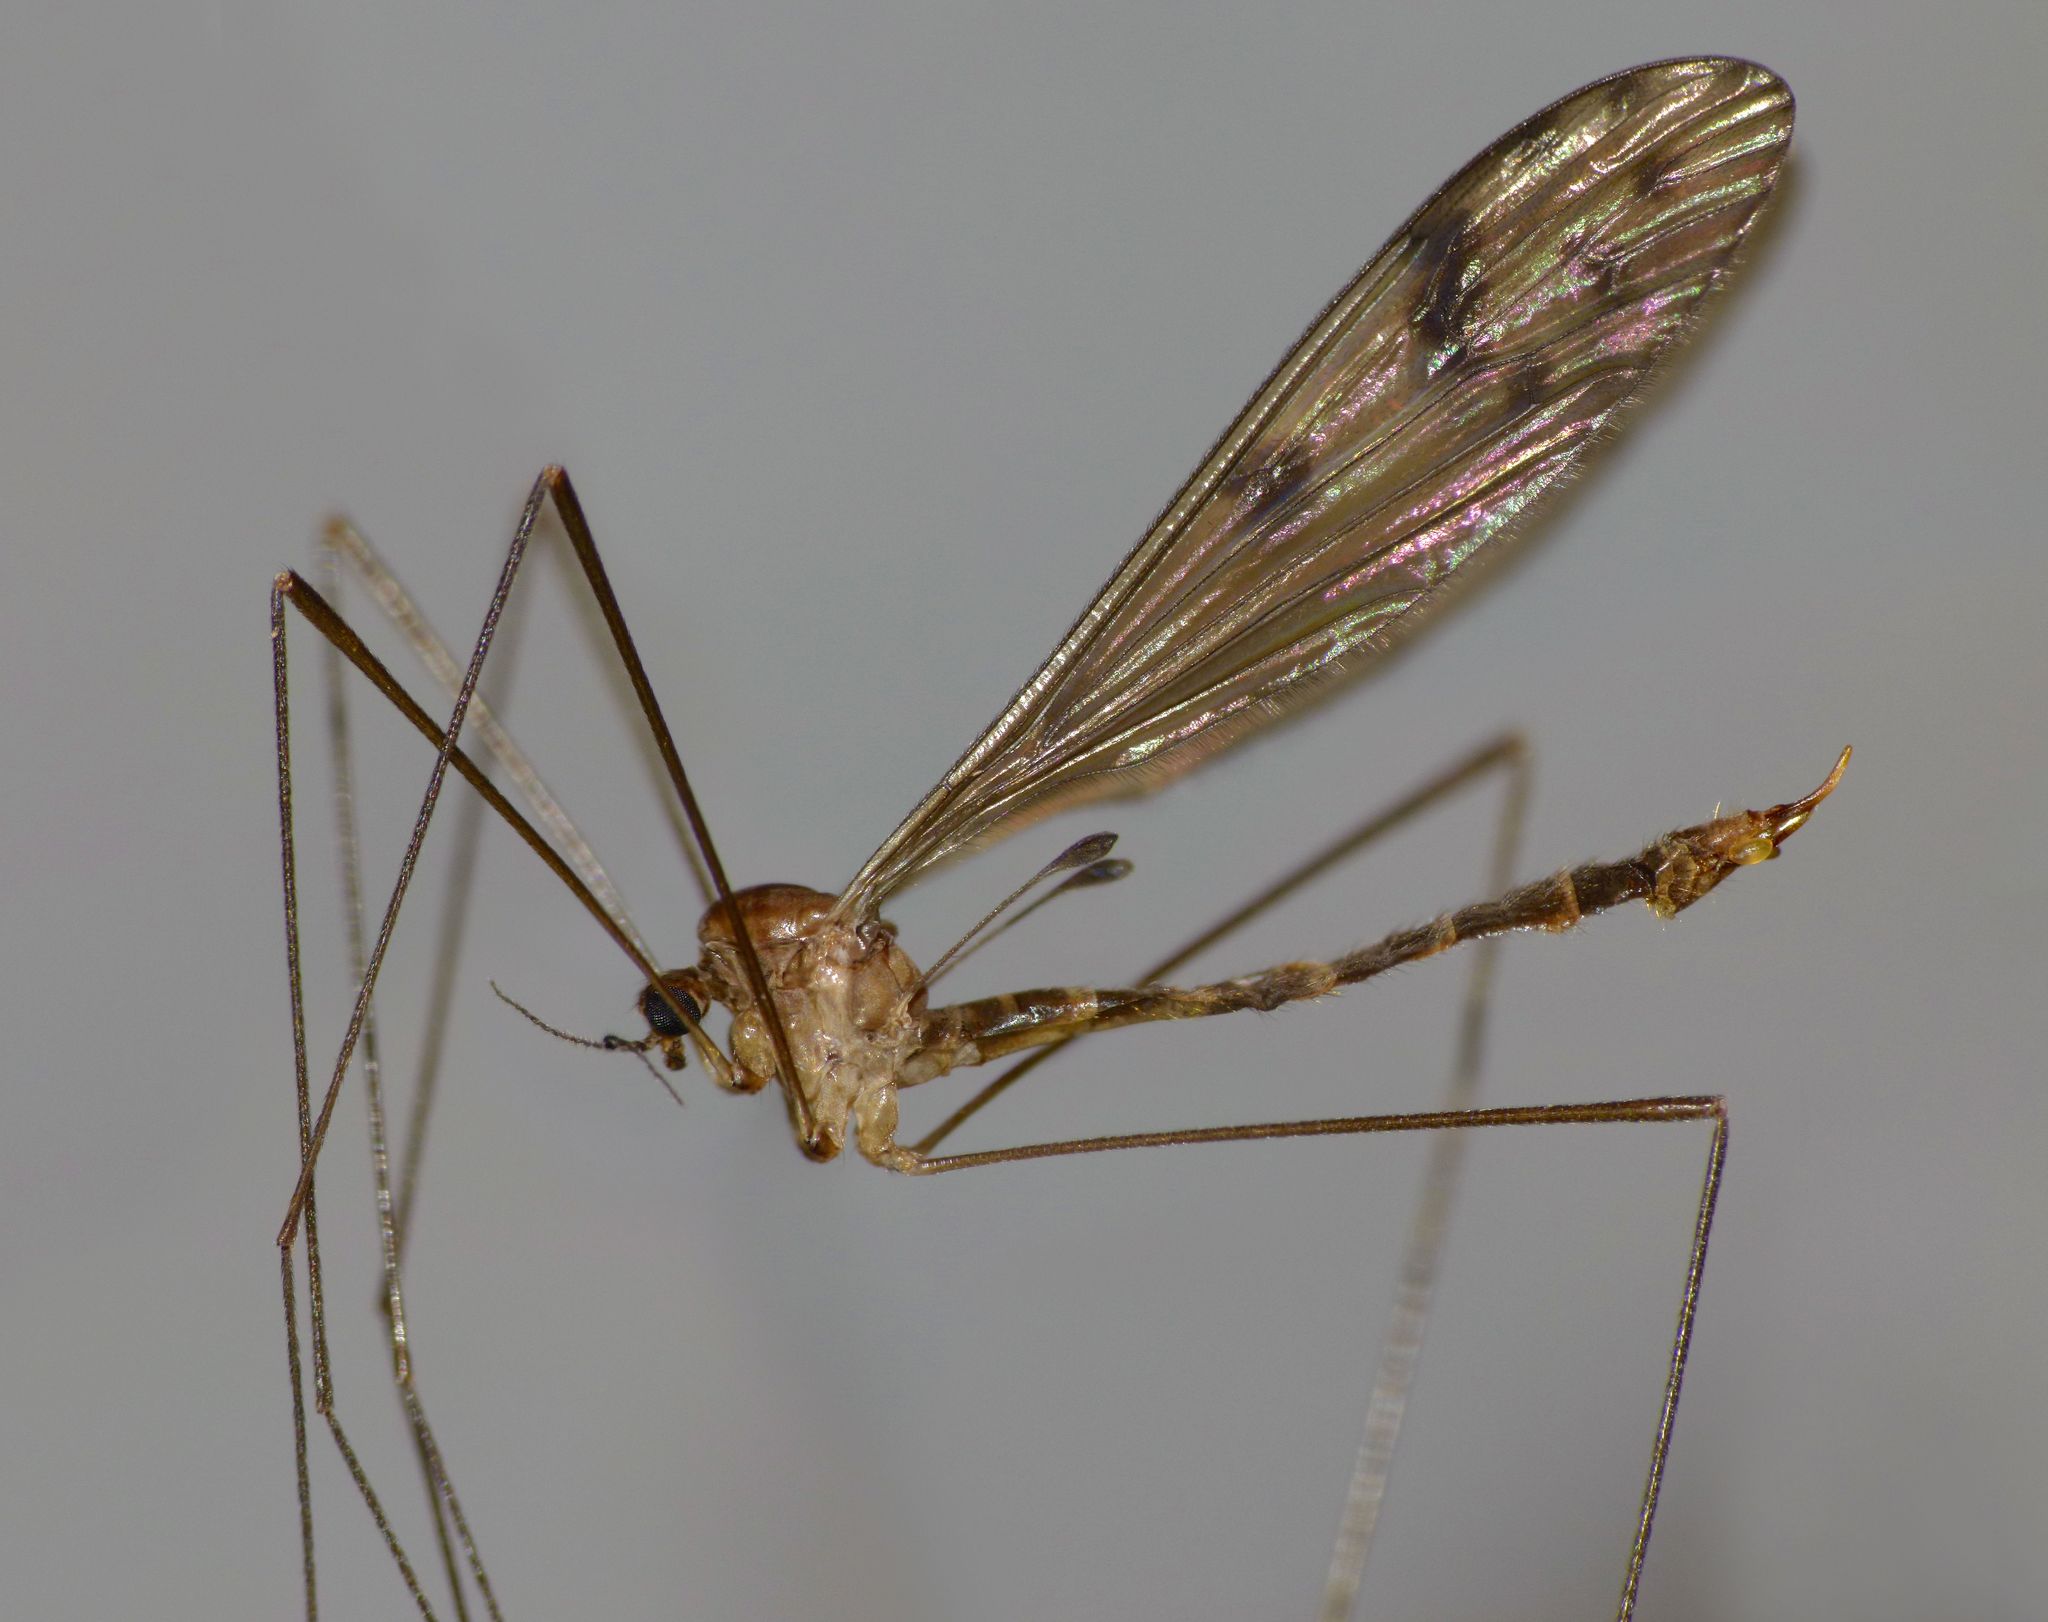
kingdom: Animalia
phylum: Arthropoda
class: Insecta
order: Diptera
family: Limoniidae
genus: Nothophila
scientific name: Nothophila fuscana
